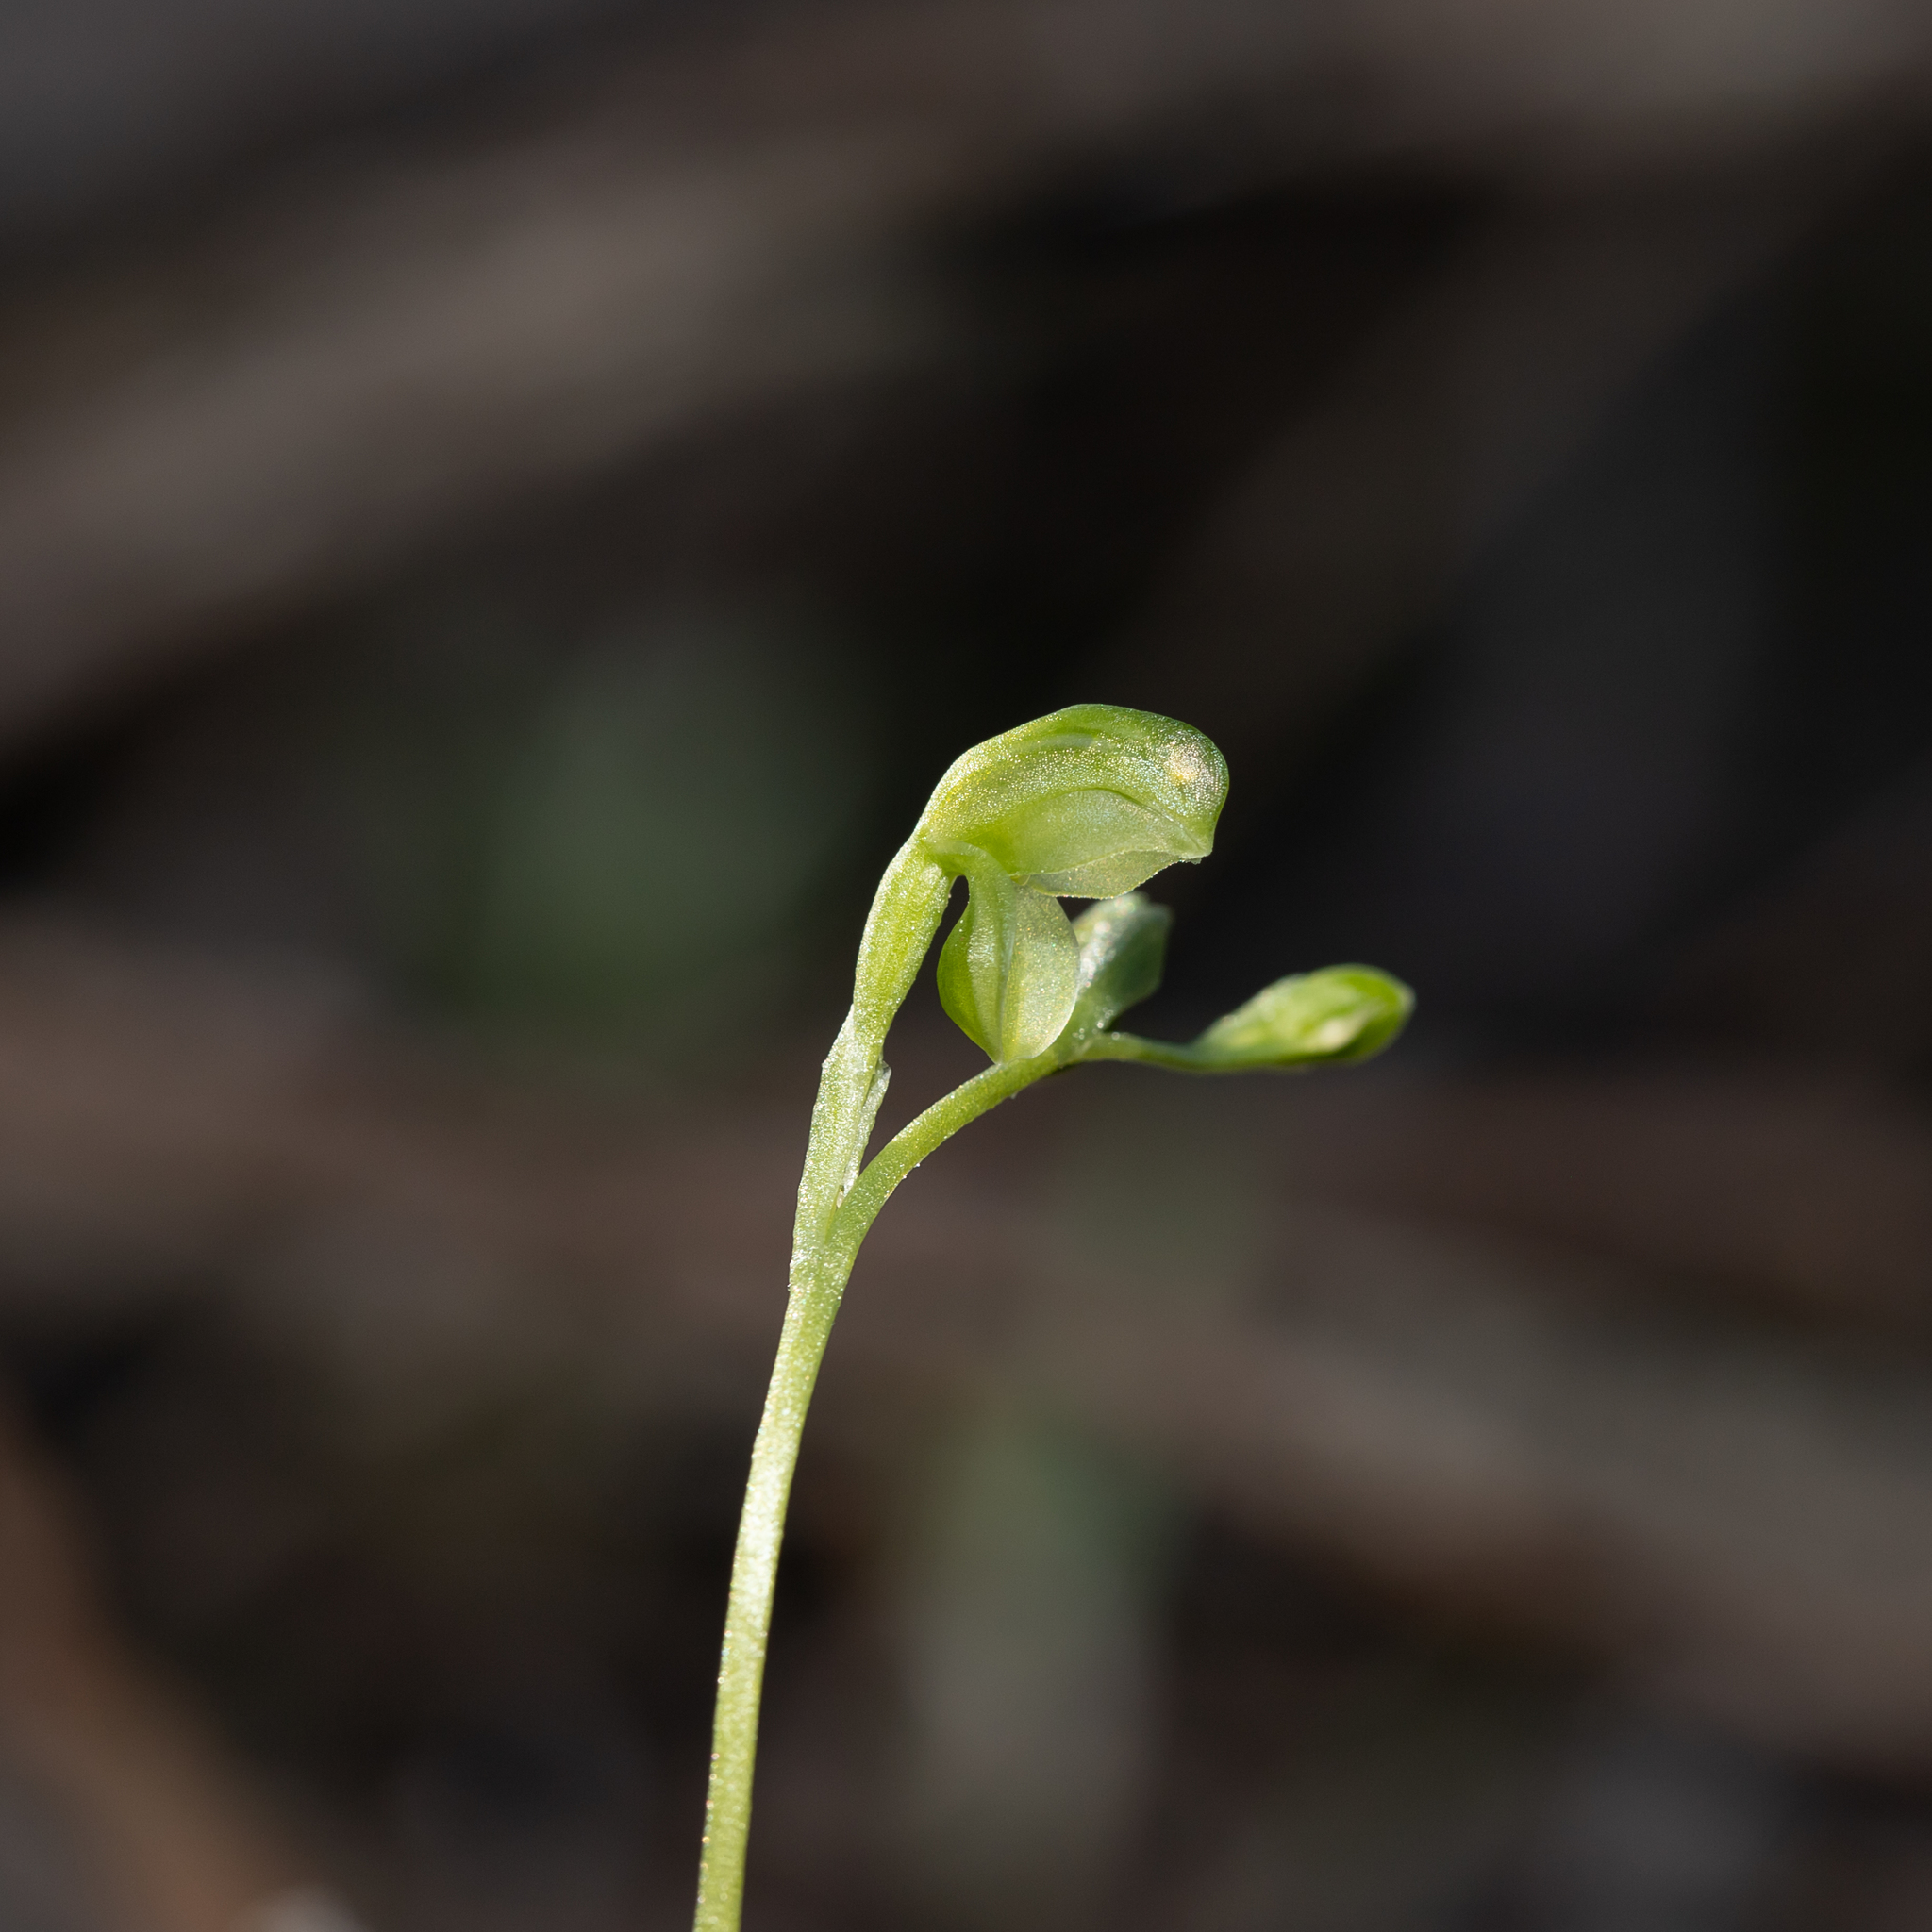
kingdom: Plantae
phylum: Tracheophyta
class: Liliopsida
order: Asparagales
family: Orchidaceae
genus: Pterostylis
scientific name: Pterostylis mutica
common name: Midget greenhood
